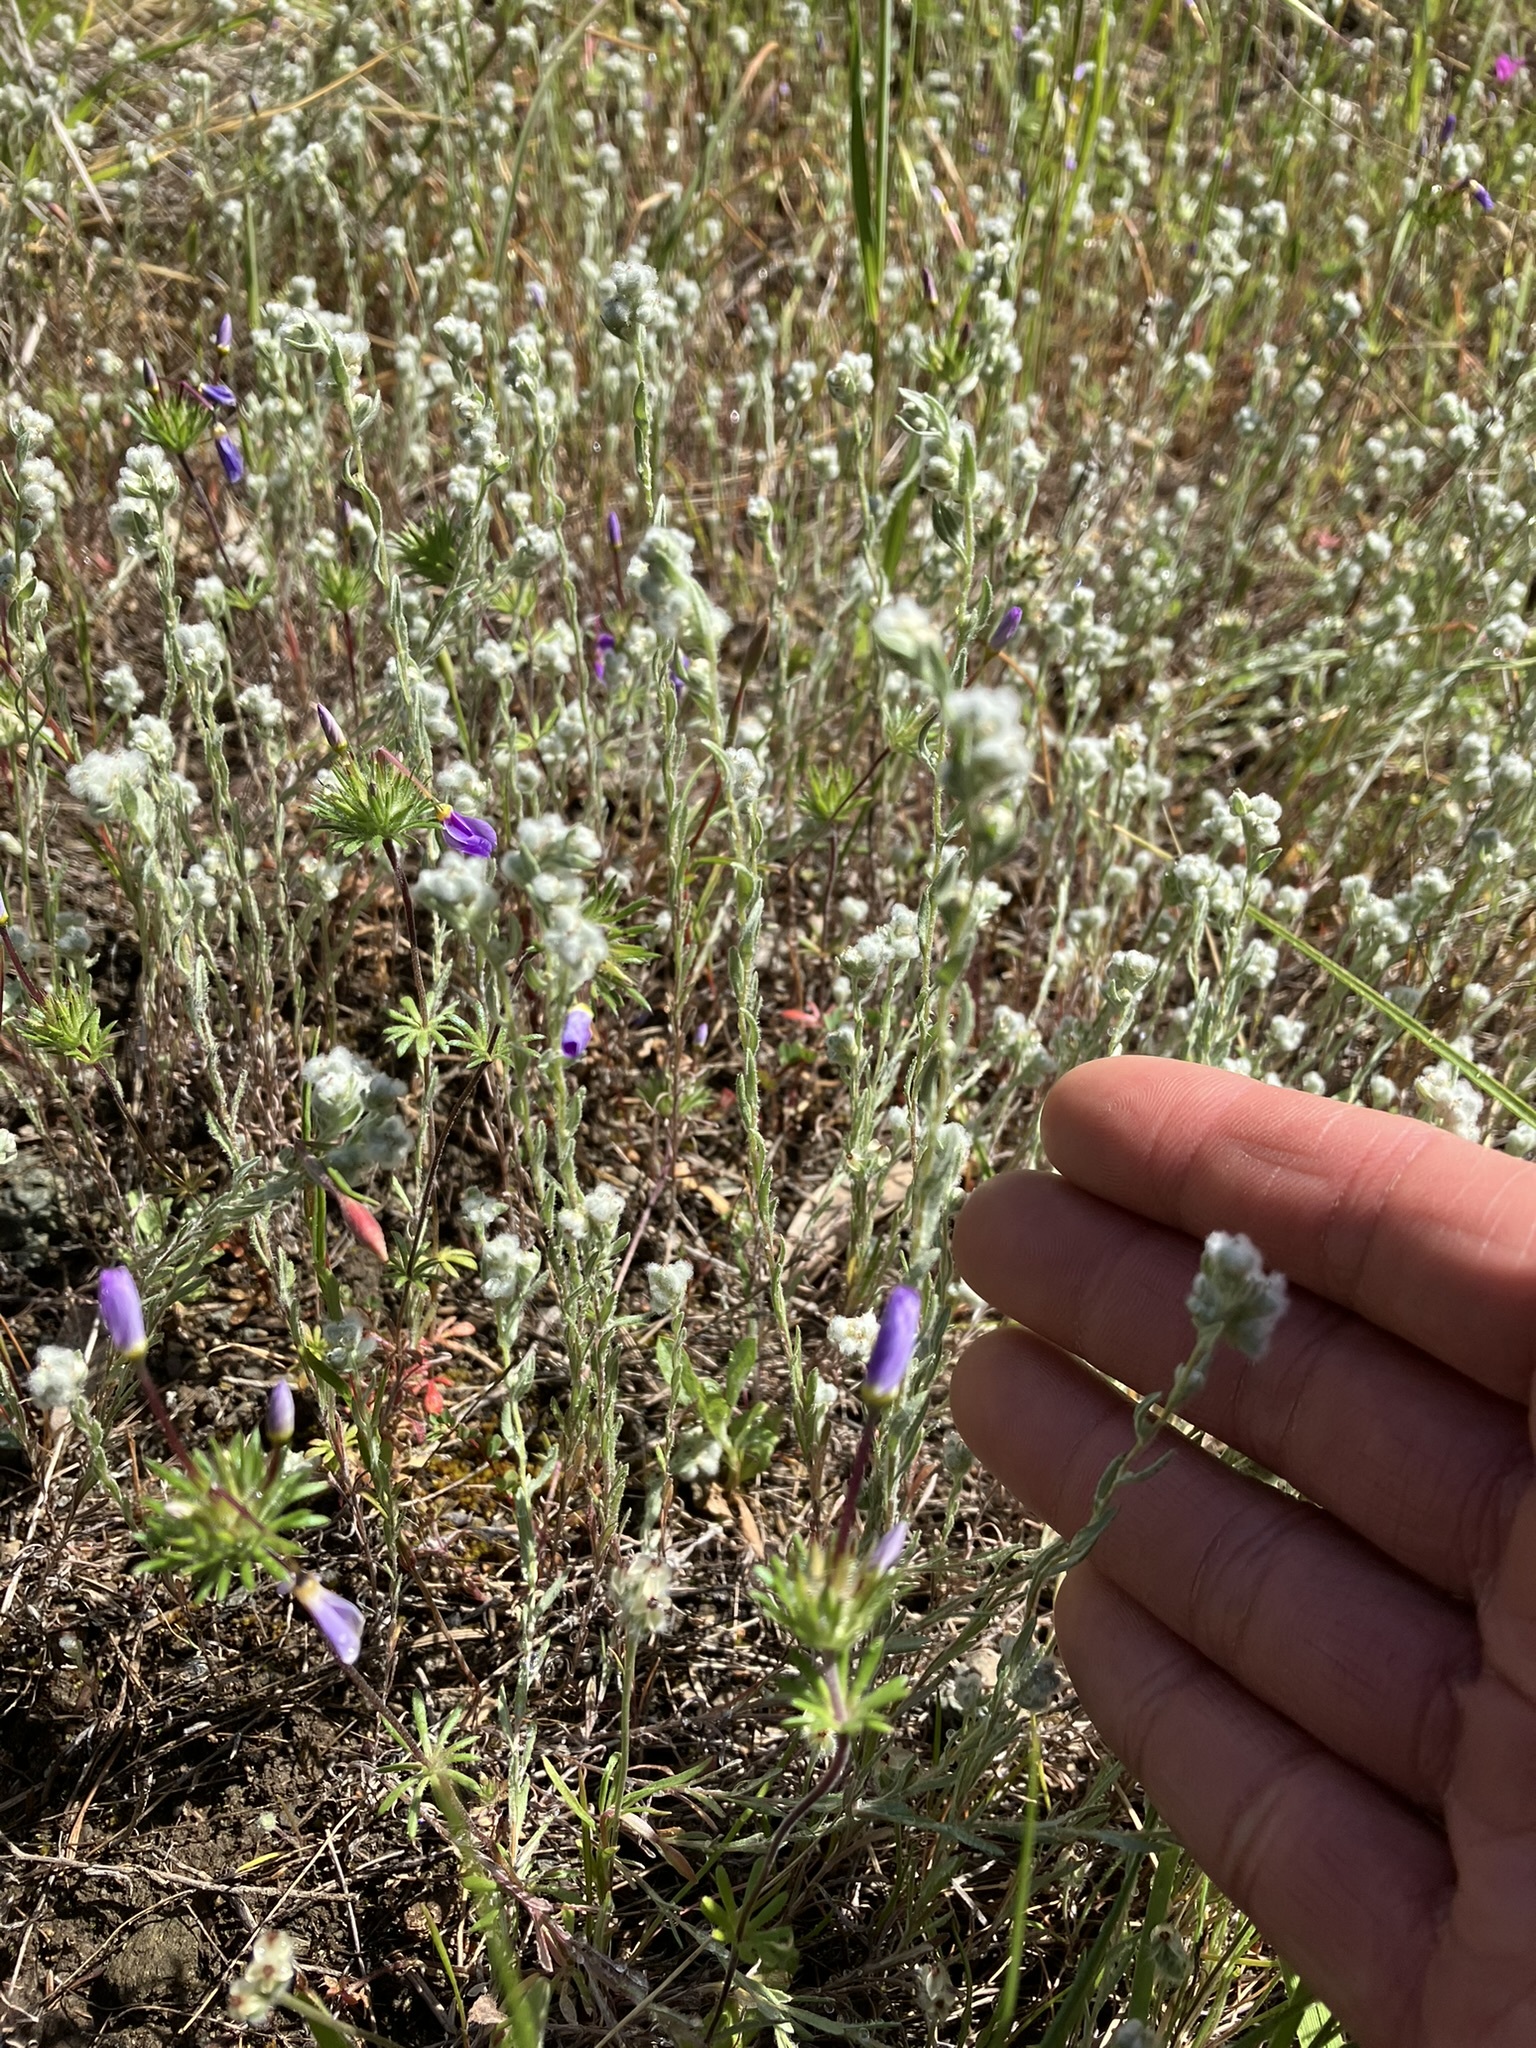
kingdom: Plantae
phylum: Tracheophyta
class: Magnoliopsida
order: Asterales
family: Asteraceae
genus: Bombycilaena
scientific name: Bombycilaena californica
